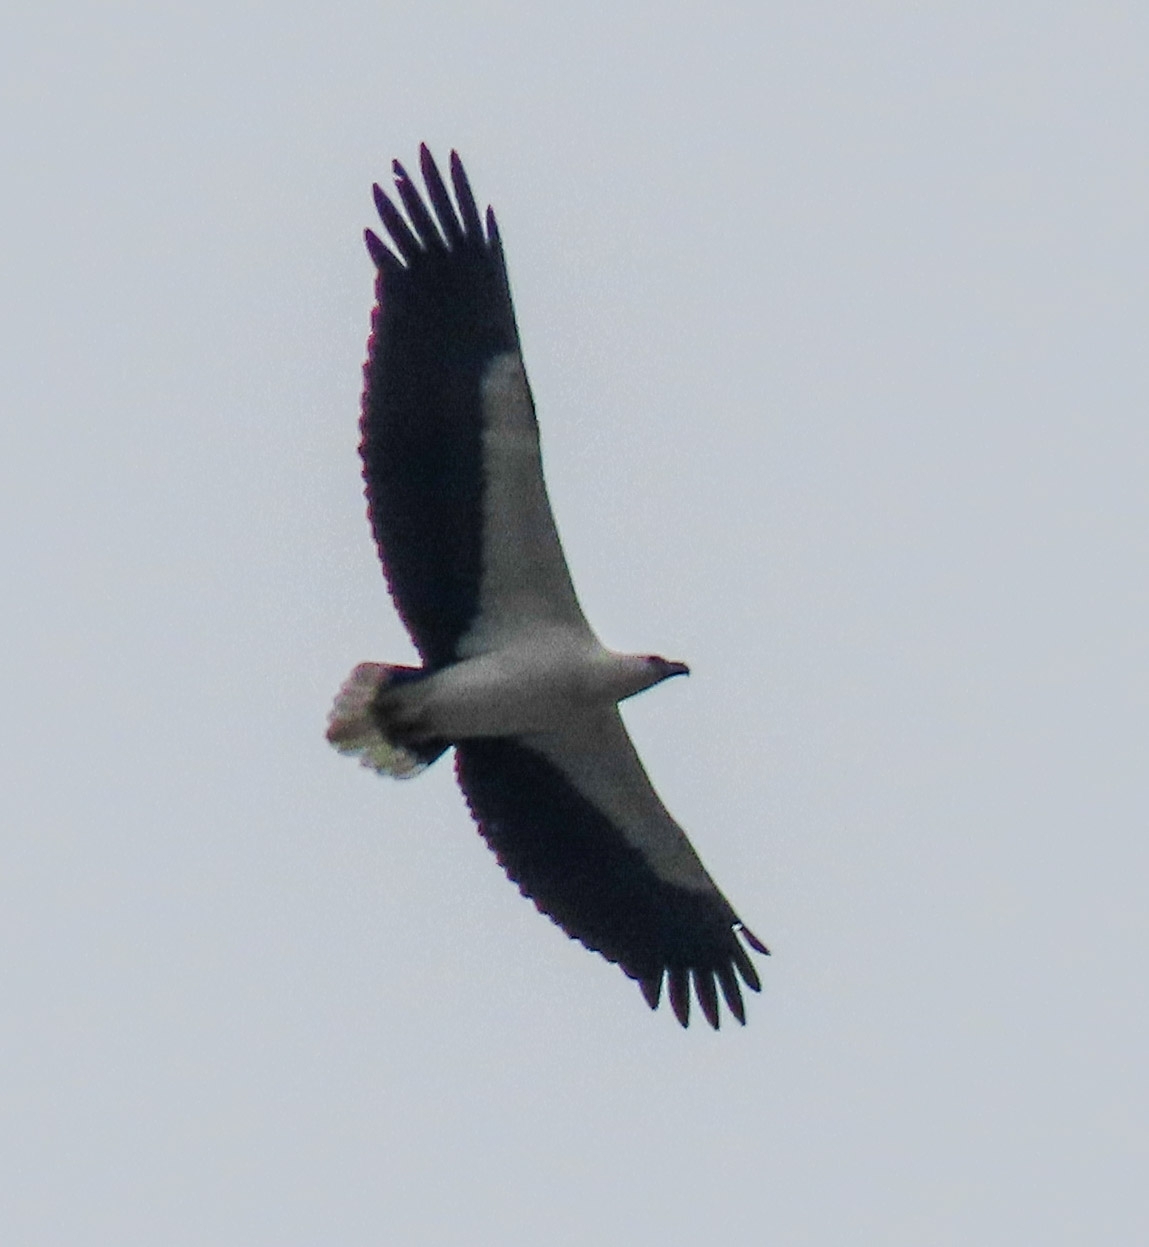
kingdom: Animalia
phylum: Chordata
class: Aves
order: Accipitriformes
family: Accipitridae
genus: Haliaeetus
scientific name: Haliaeetus leucogaster
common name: White-bellied sea eagle
